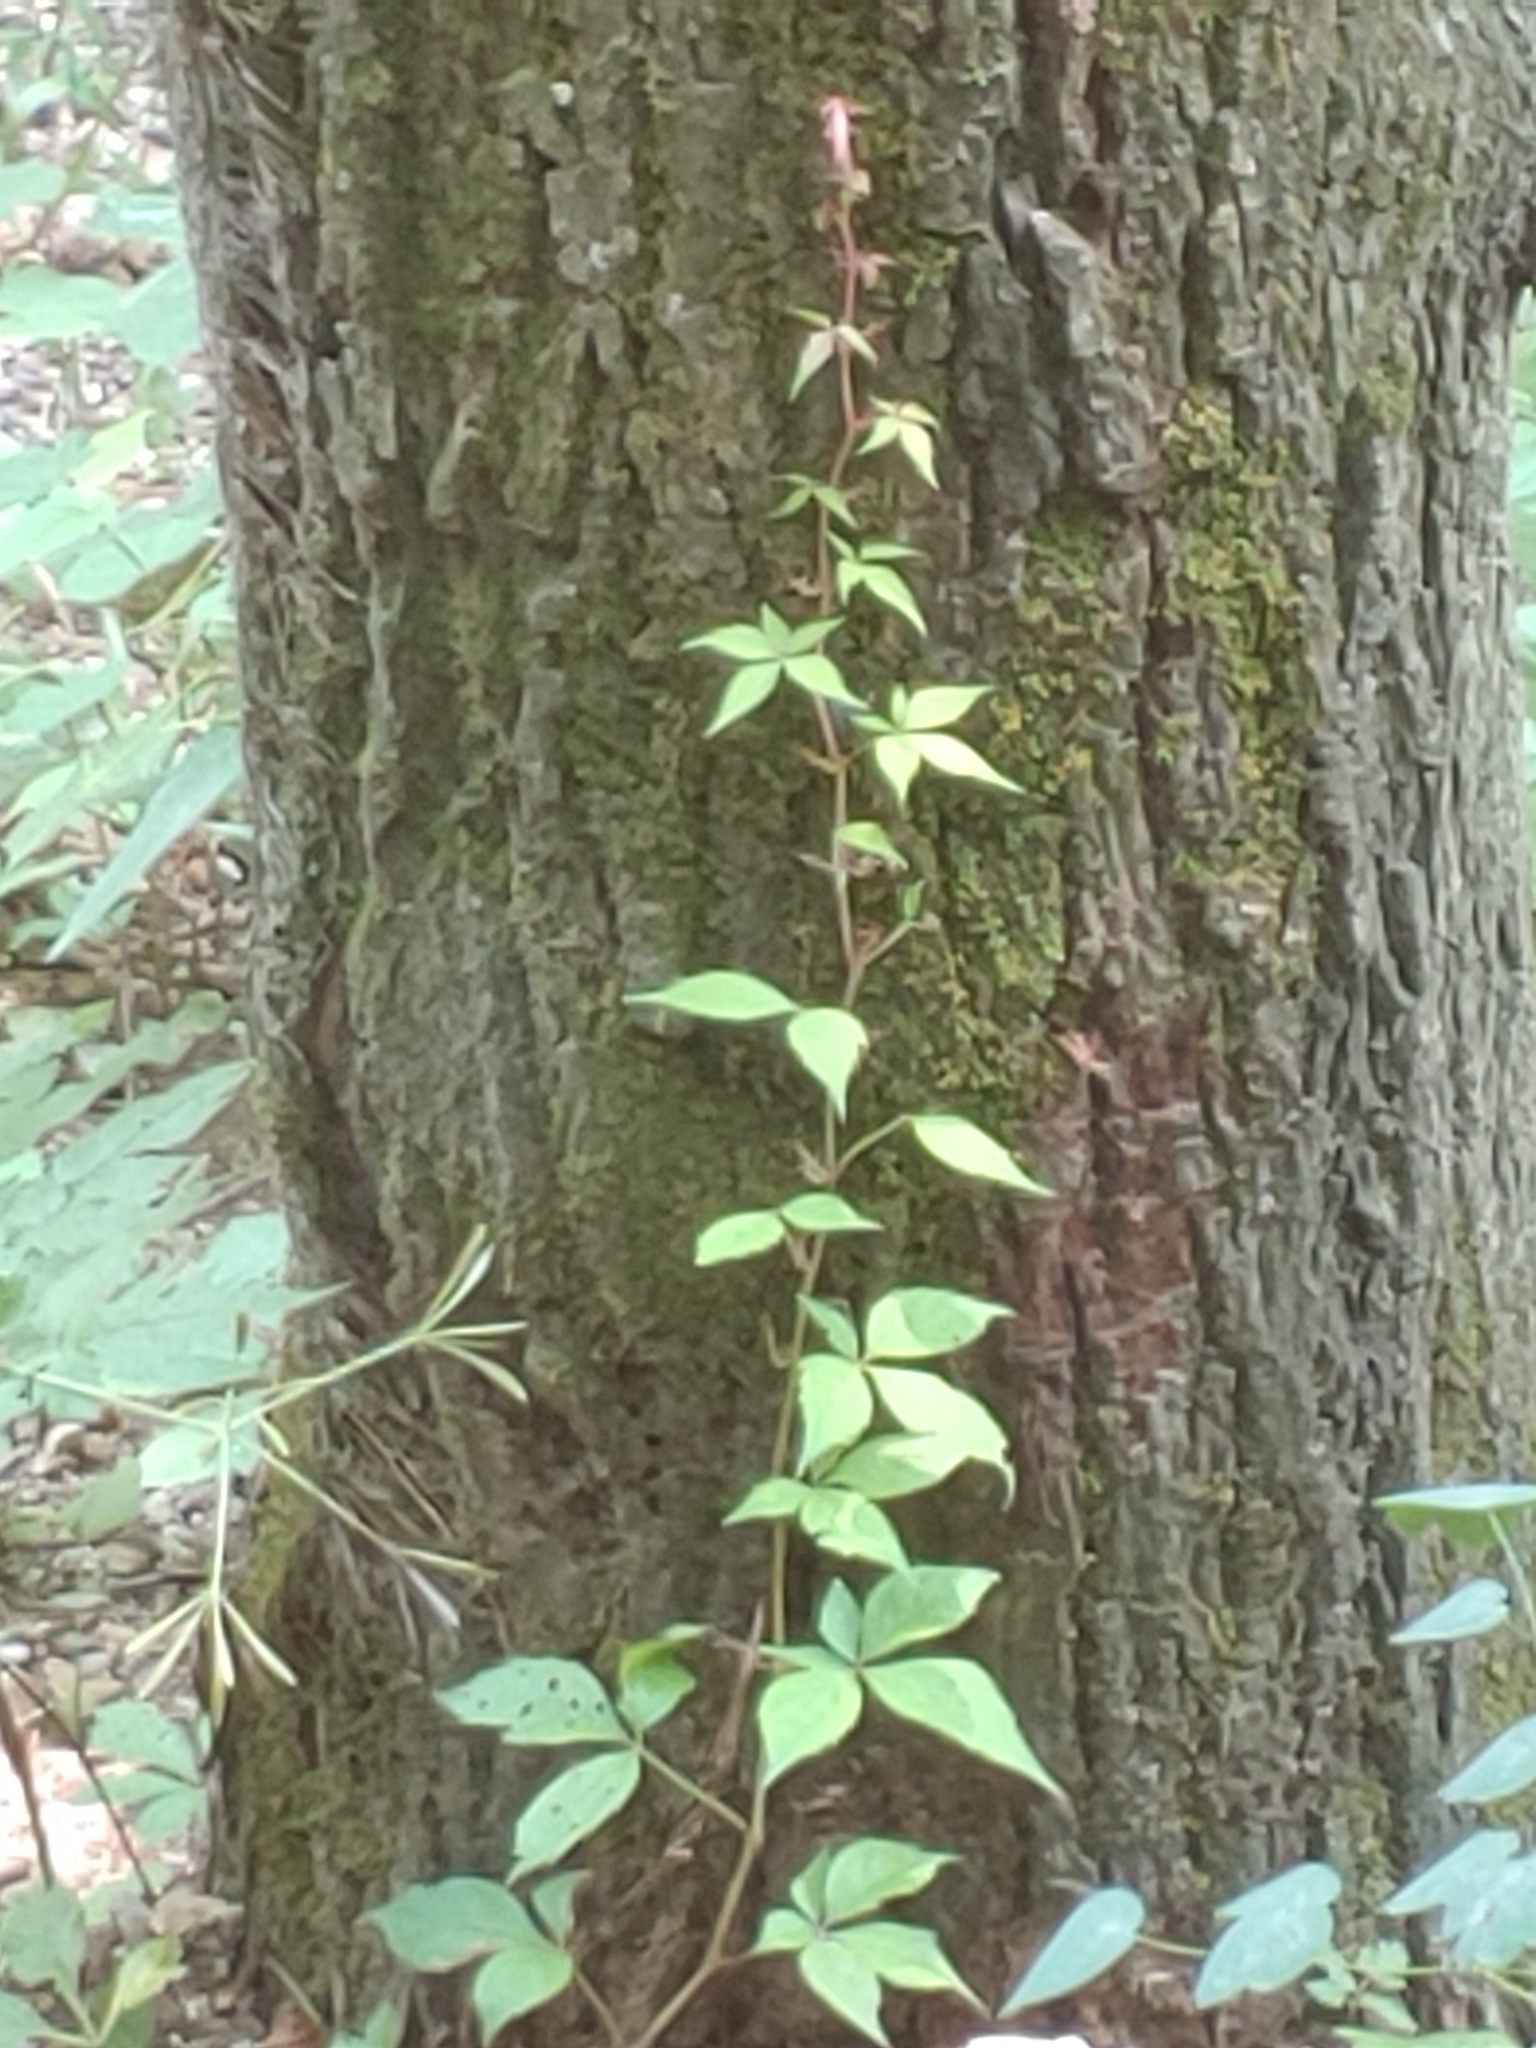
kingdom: Plantae
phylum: Tracheophyta
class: Magnoliopsida
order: Vitales
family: Vitaceae
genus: Parthenocissus
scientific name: Parthenocissus quinquefolia
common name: Virginia-creeper
